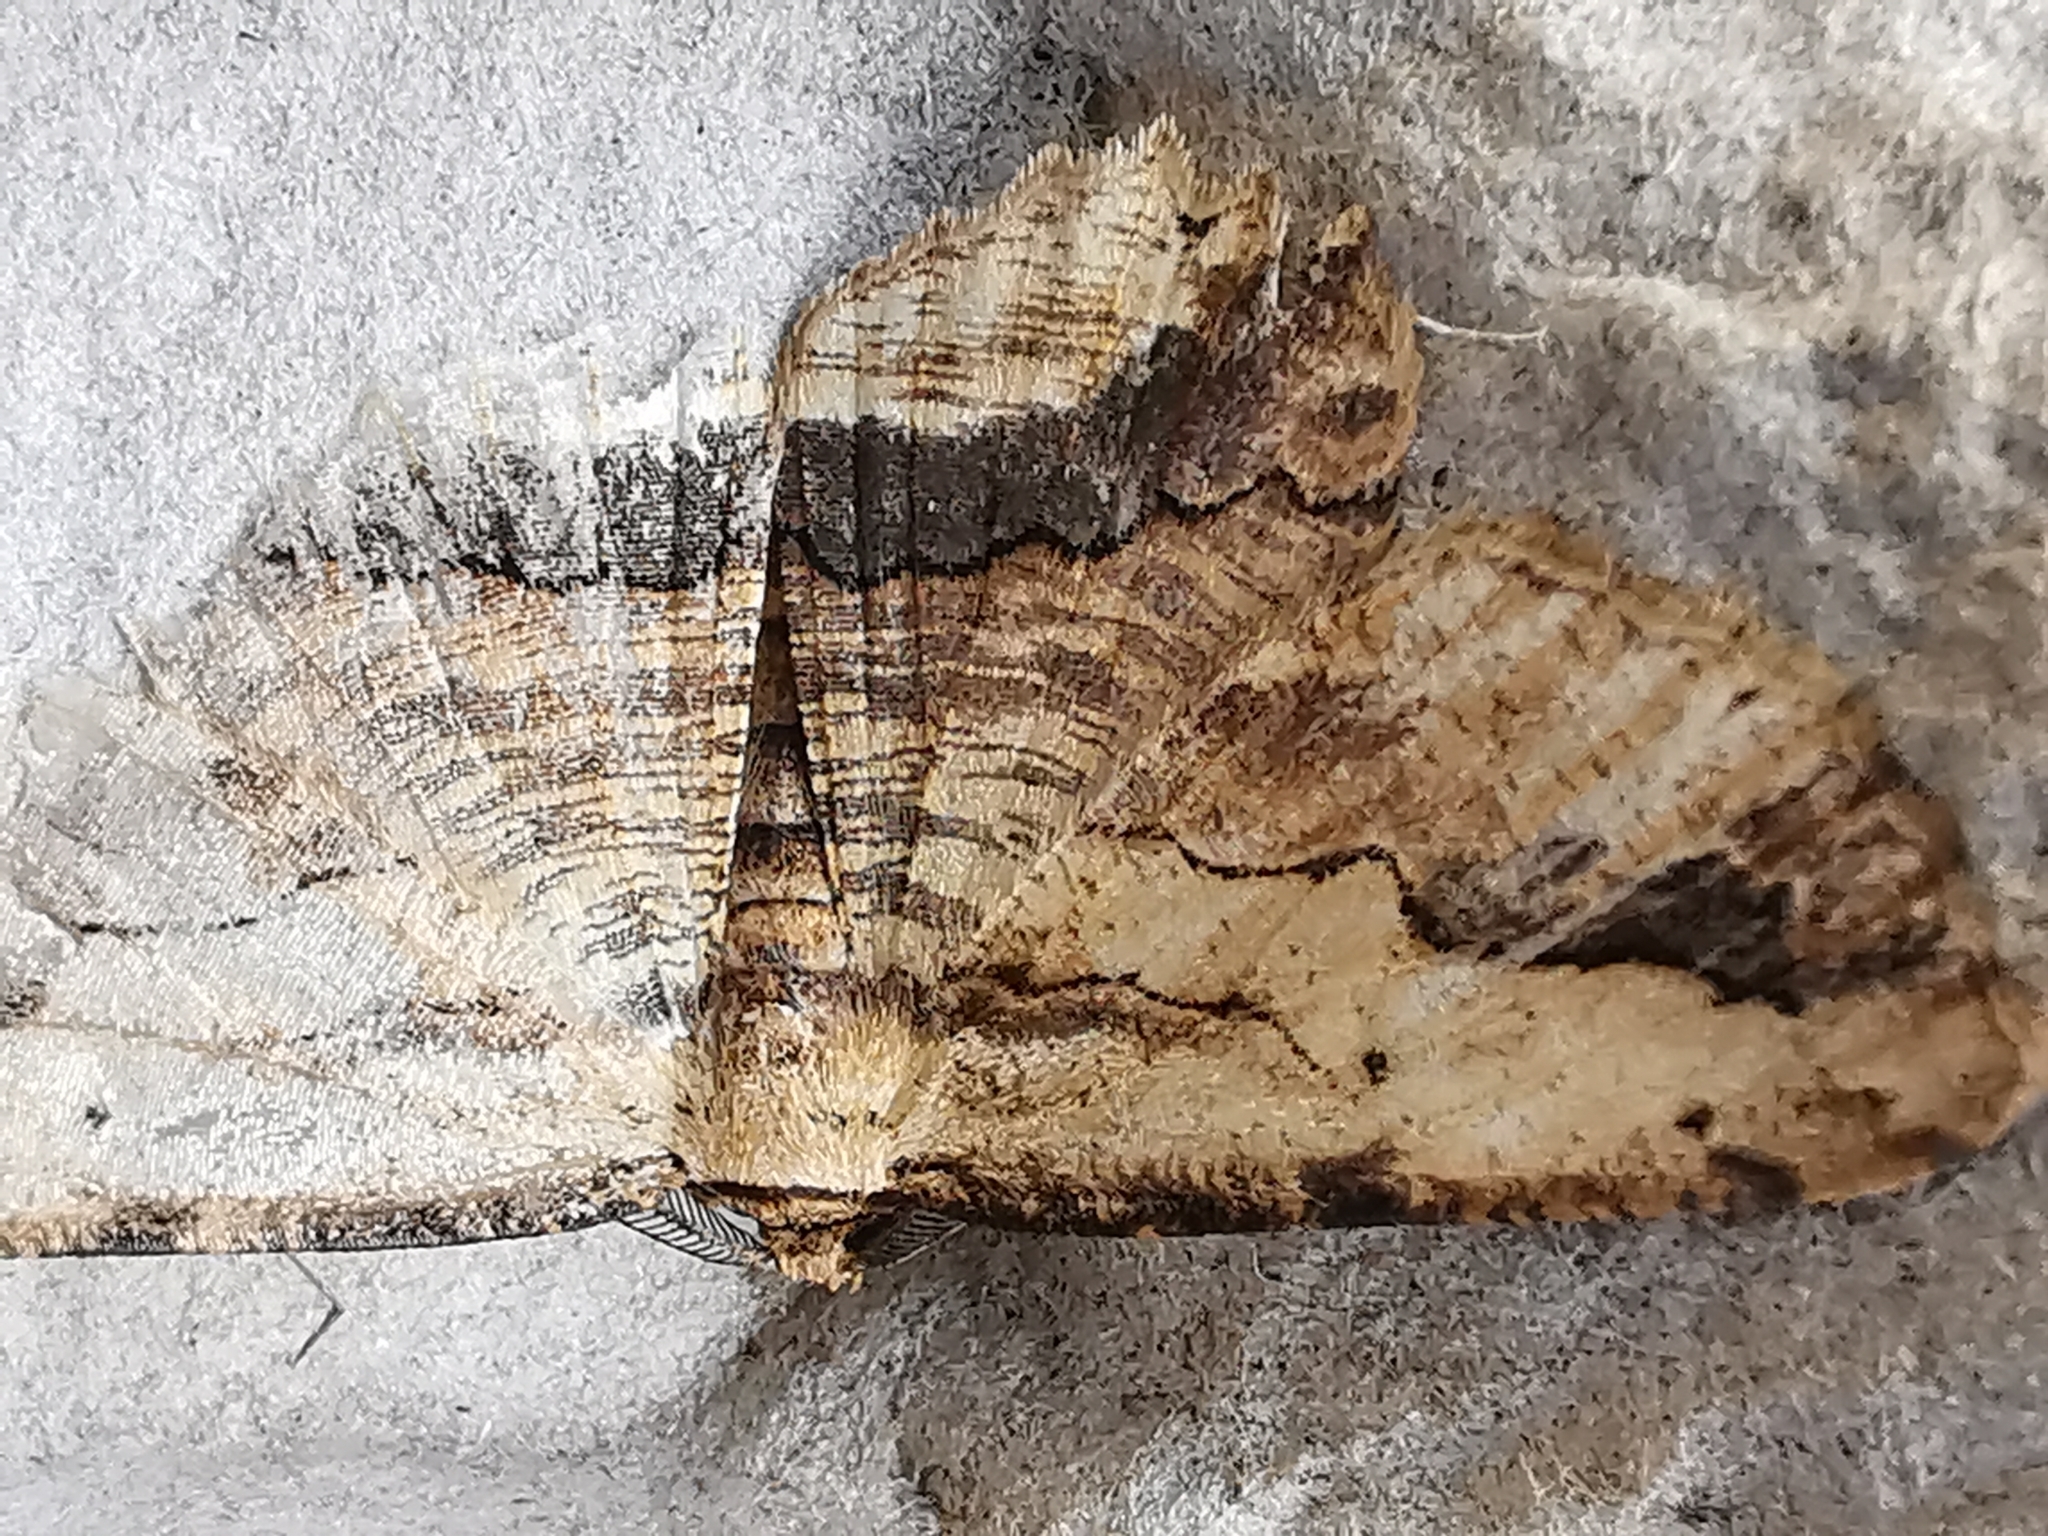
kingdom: Animalia
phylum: Arthropoda
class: Insecta
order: Lepidoptera
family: Geometridae
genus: Menophra
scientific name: Menophra abruptaria
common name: Waved umber
